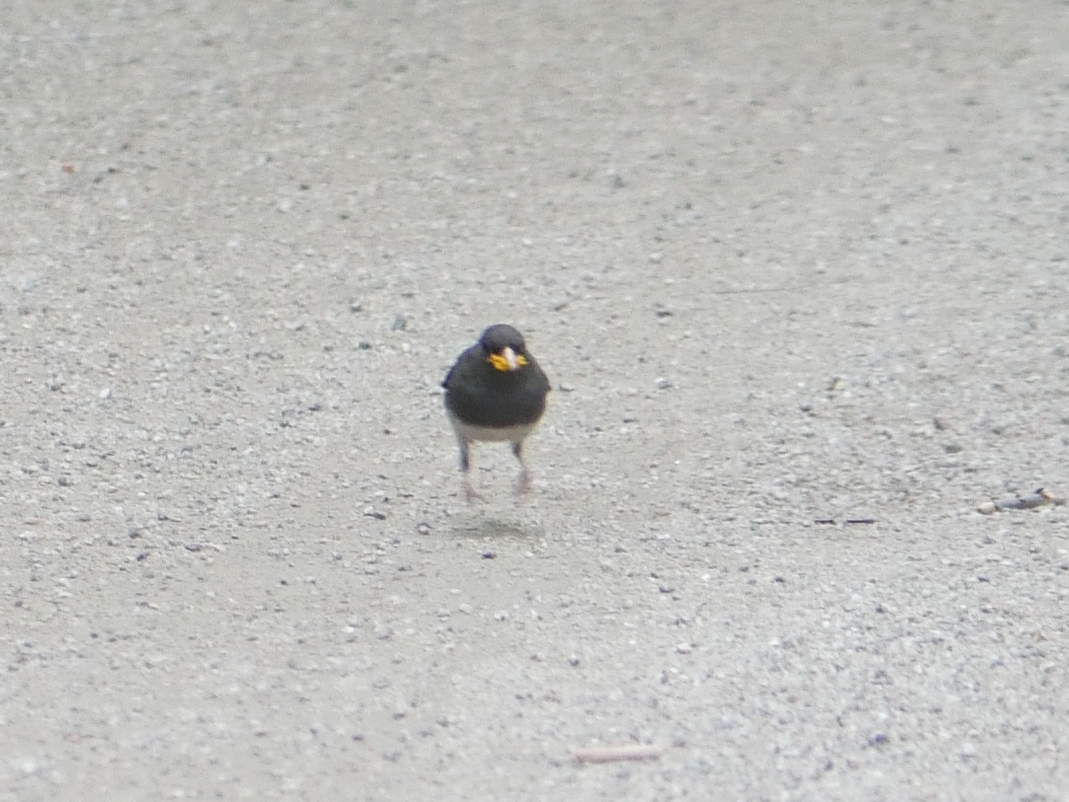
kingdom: Animalia
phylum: Chordata
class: Aves
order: Passeriformes
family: Passerellidae
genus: Junco
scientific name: Junco hyemalis
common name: Dark-eyed junco
